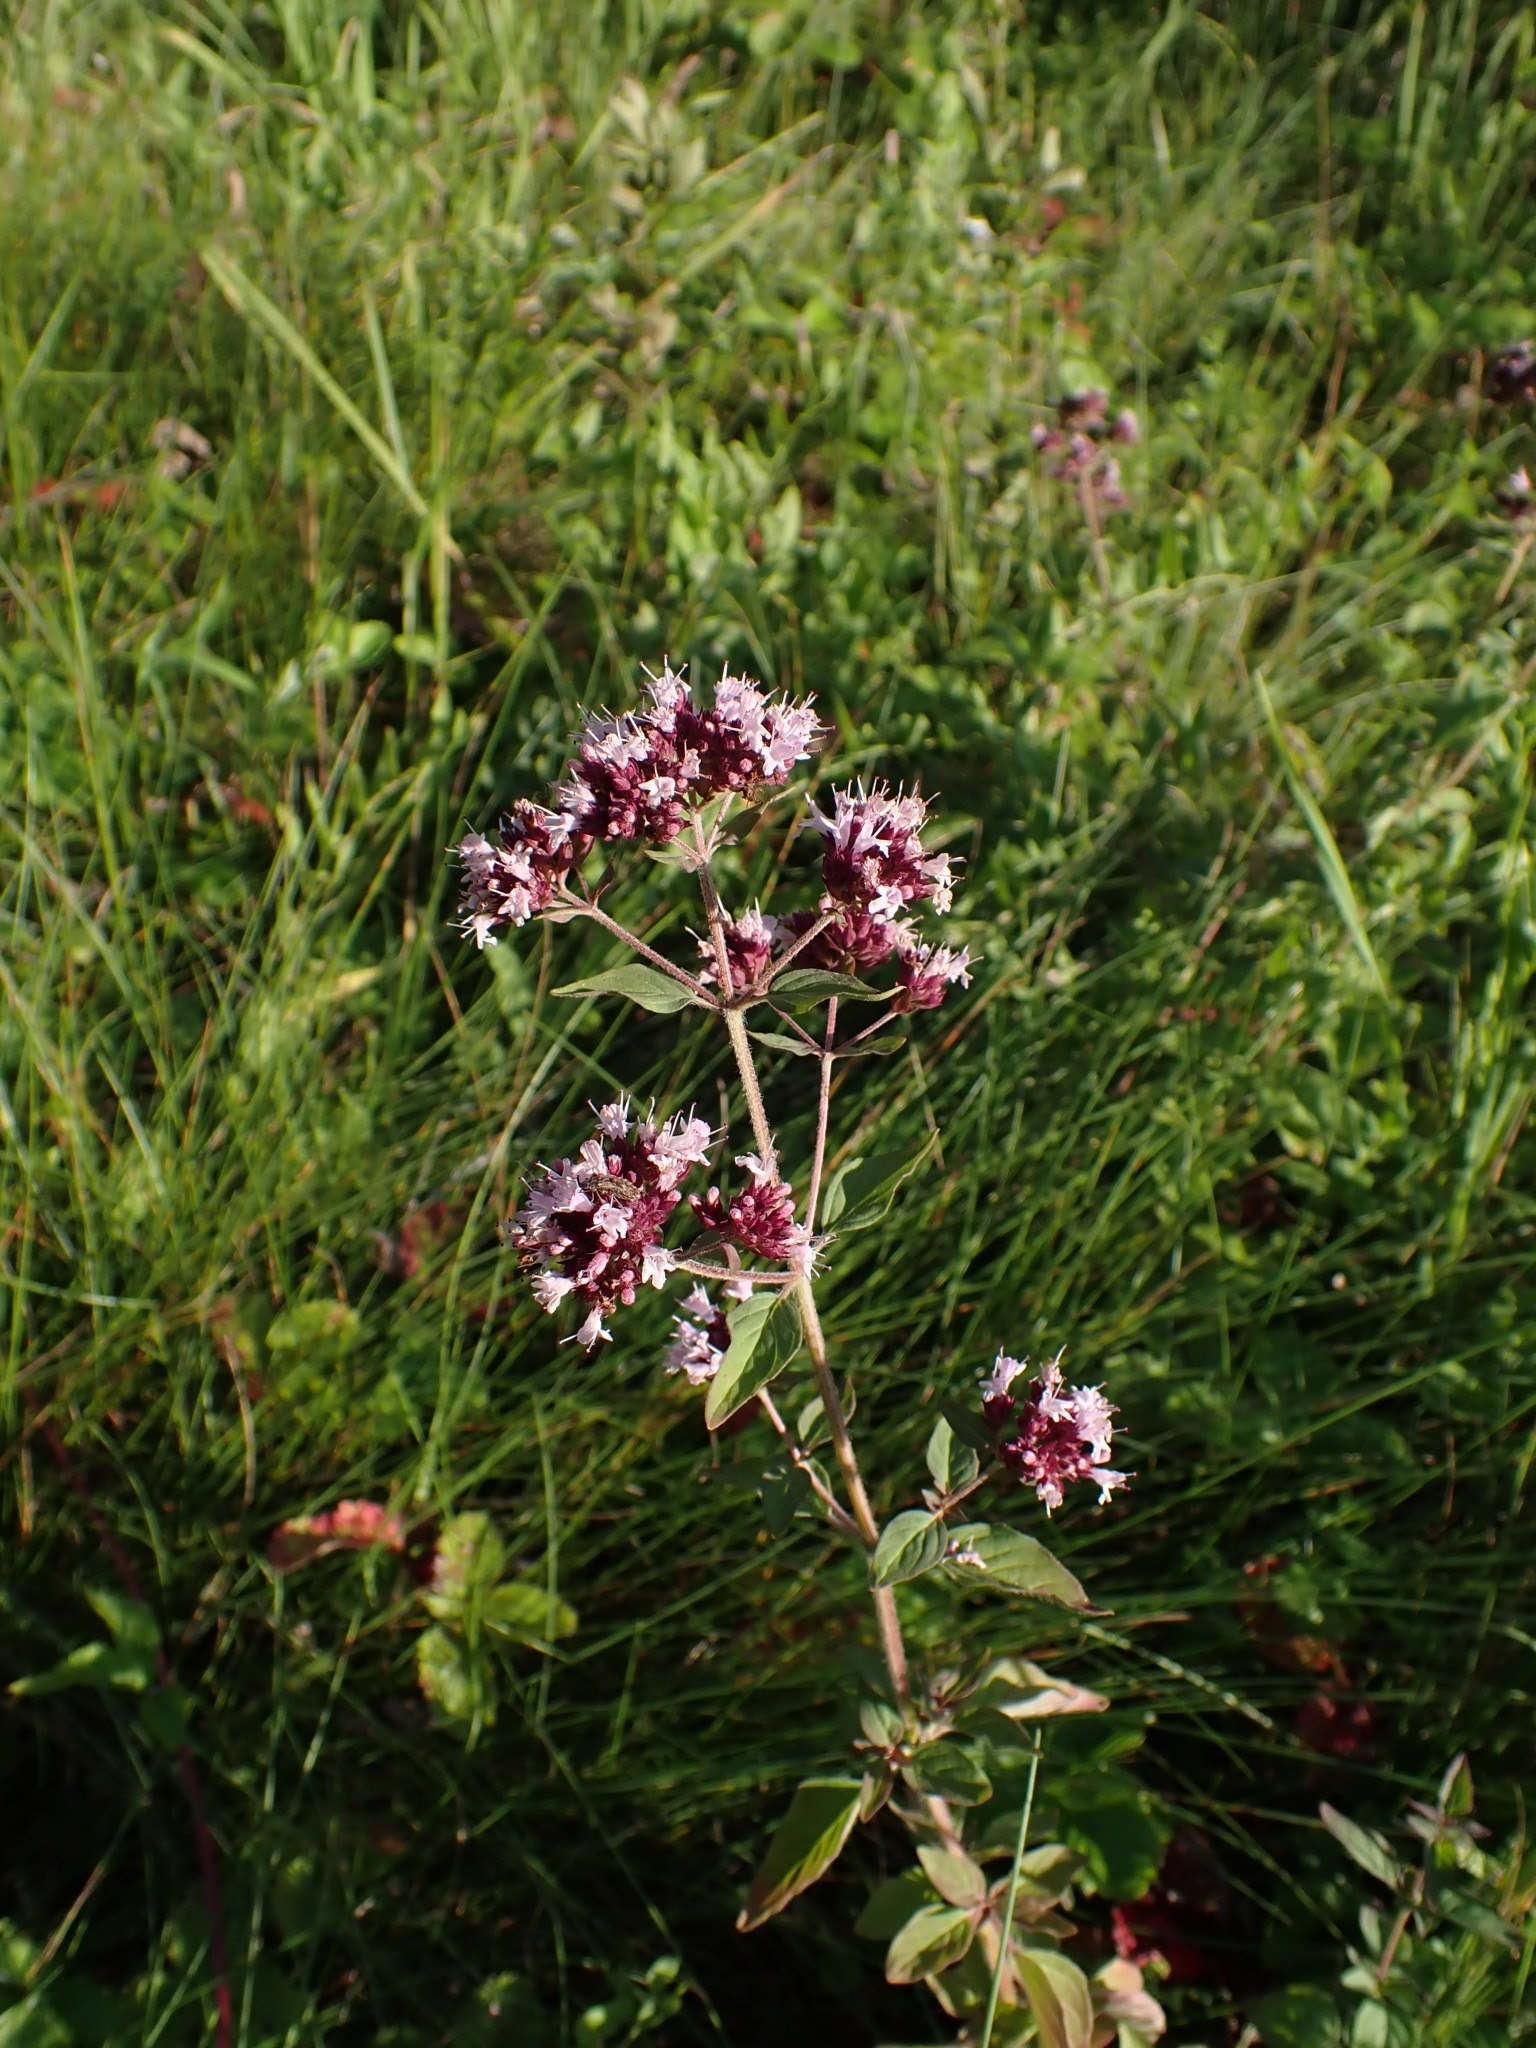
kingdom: Plantae
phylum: Tracheophyta
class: Magnoliopsida
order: Lamiales
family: Lamiaceae
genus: Origanum
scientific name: Origanum vulgare
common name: Wild marjoram
